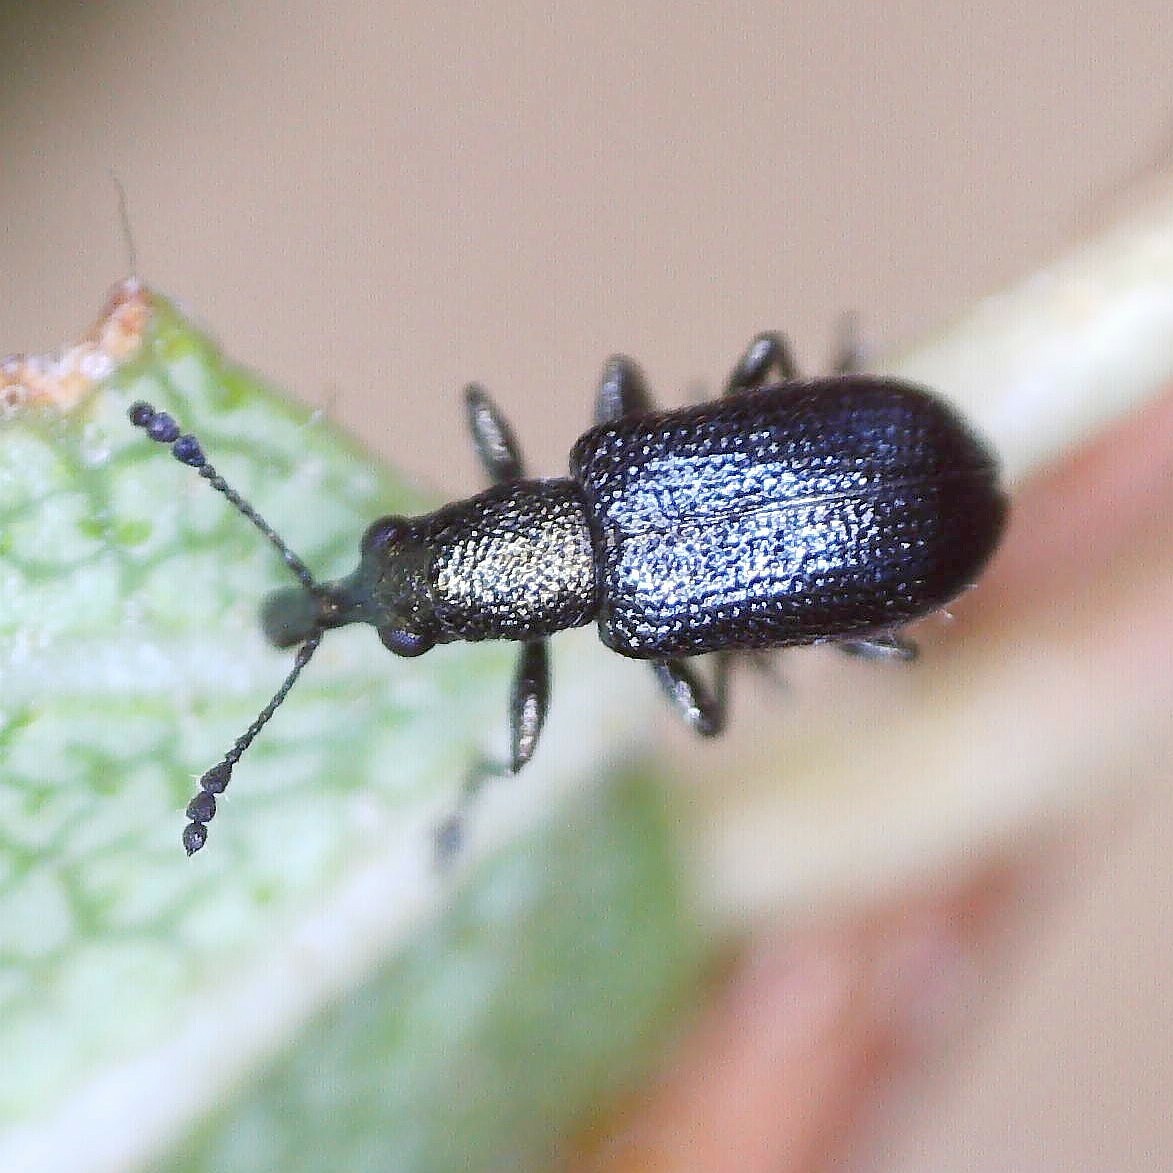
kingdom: Animalia
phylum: Arthropoda
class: Insecta
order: Coleoptera
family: Attelabidae
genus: Temnocerus
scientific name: Temnocerus nanus
